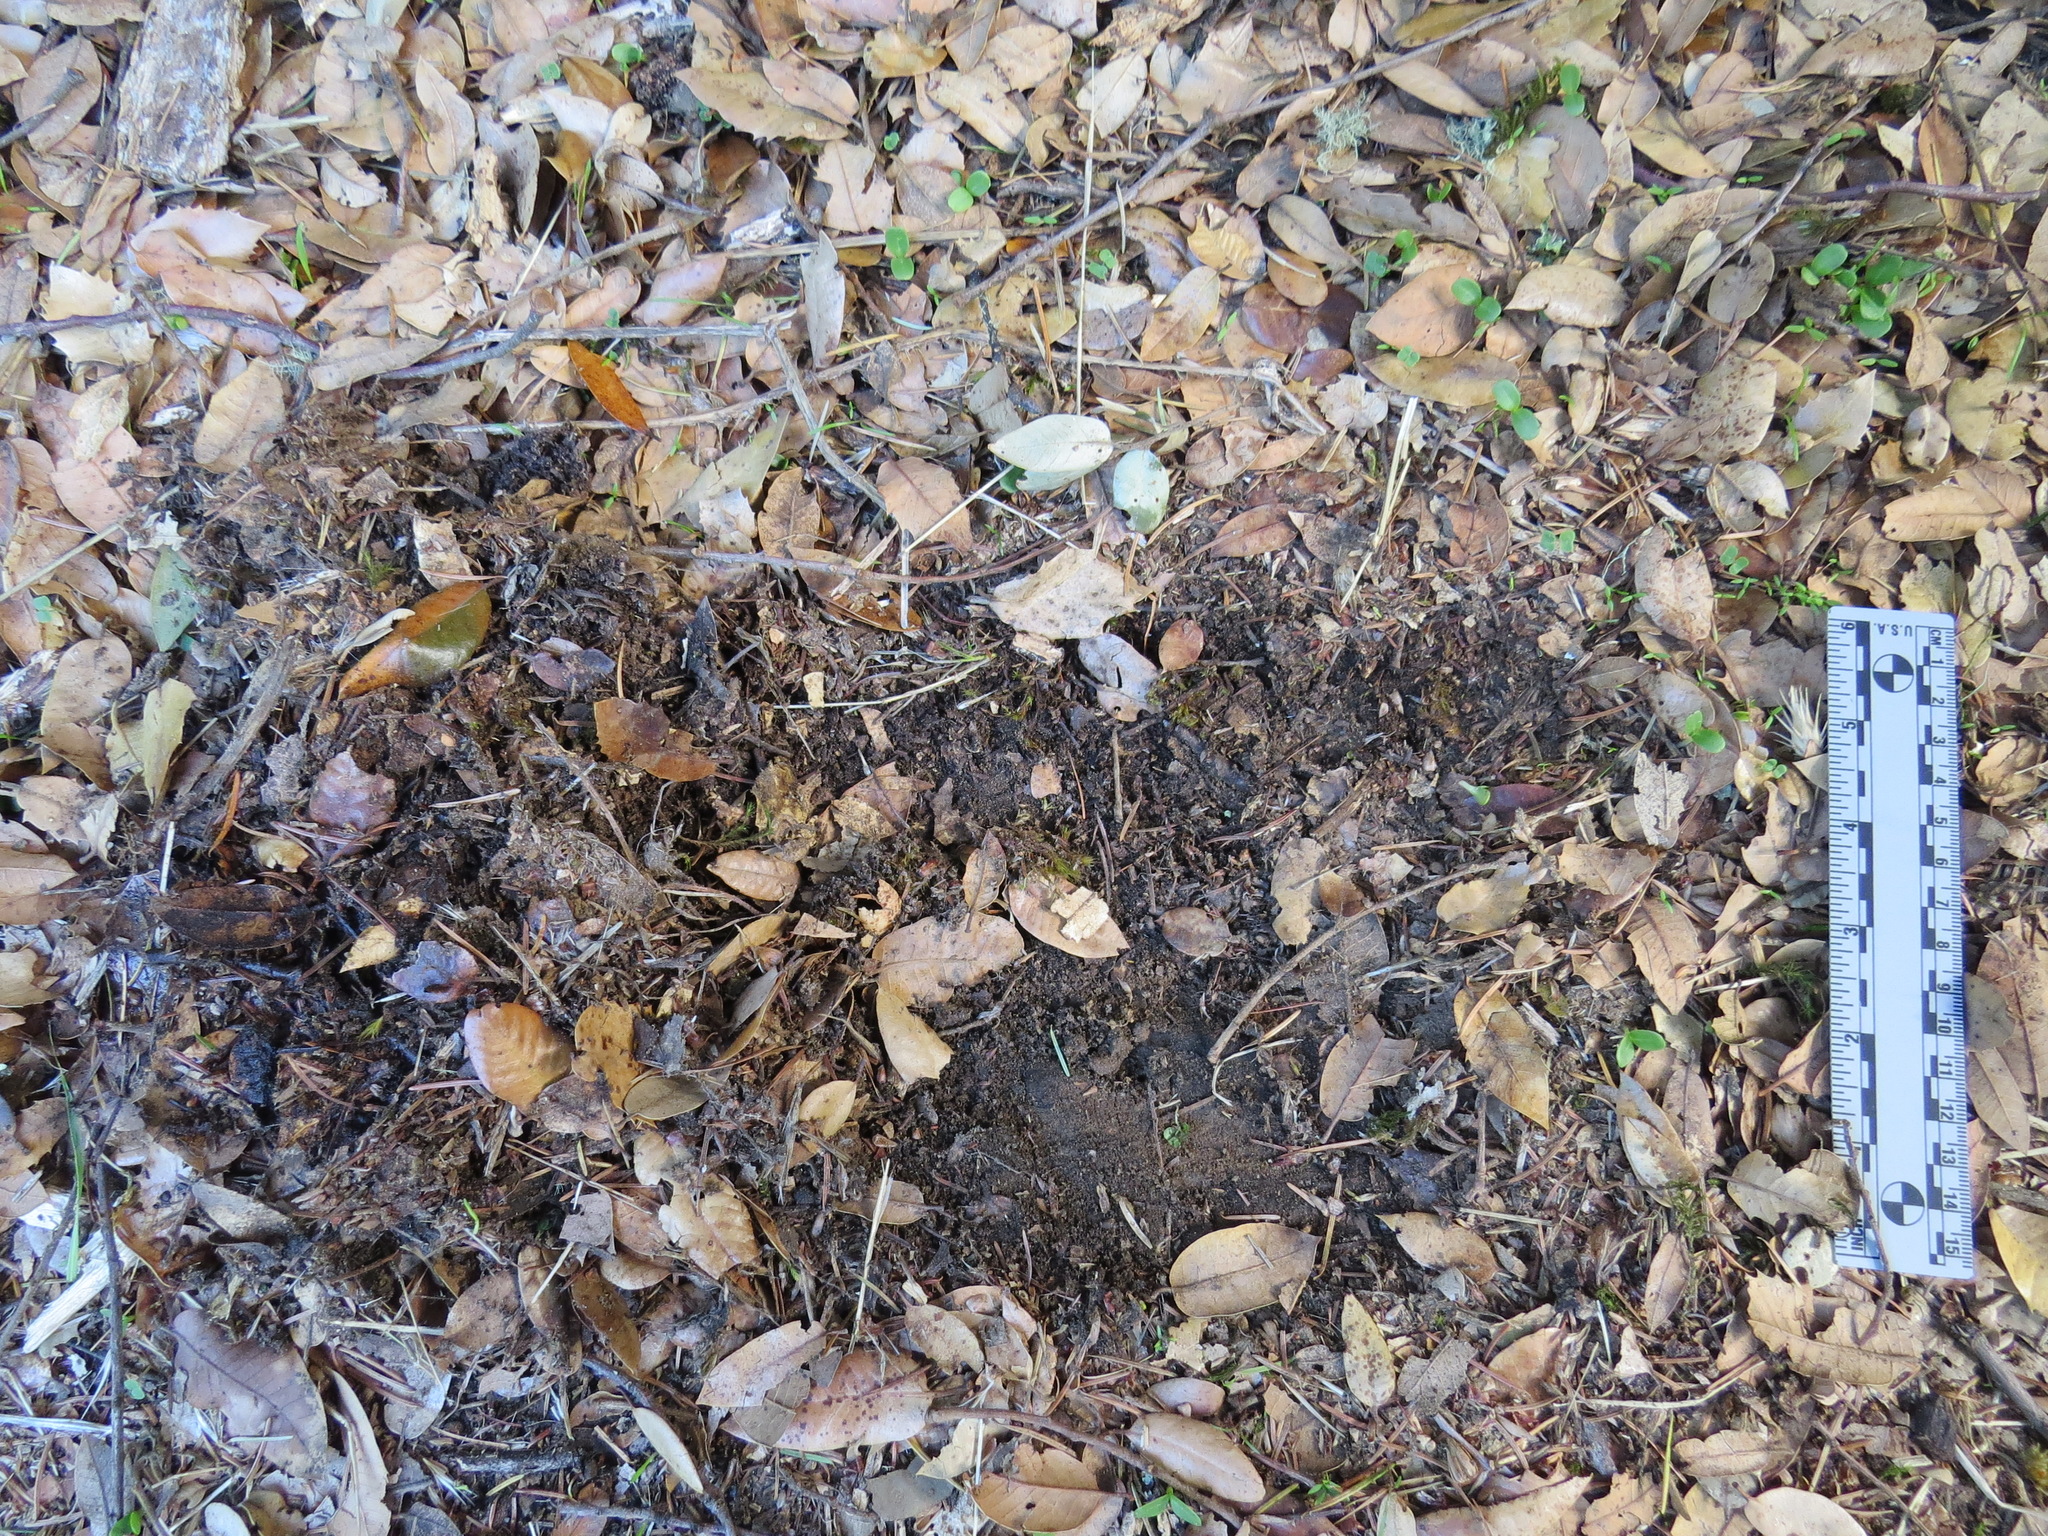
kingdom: Animalia
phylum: Chordata
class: Mammalia
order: Carnivora
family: Felidae
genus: Puma
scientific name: Puma concolor
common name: Puma
